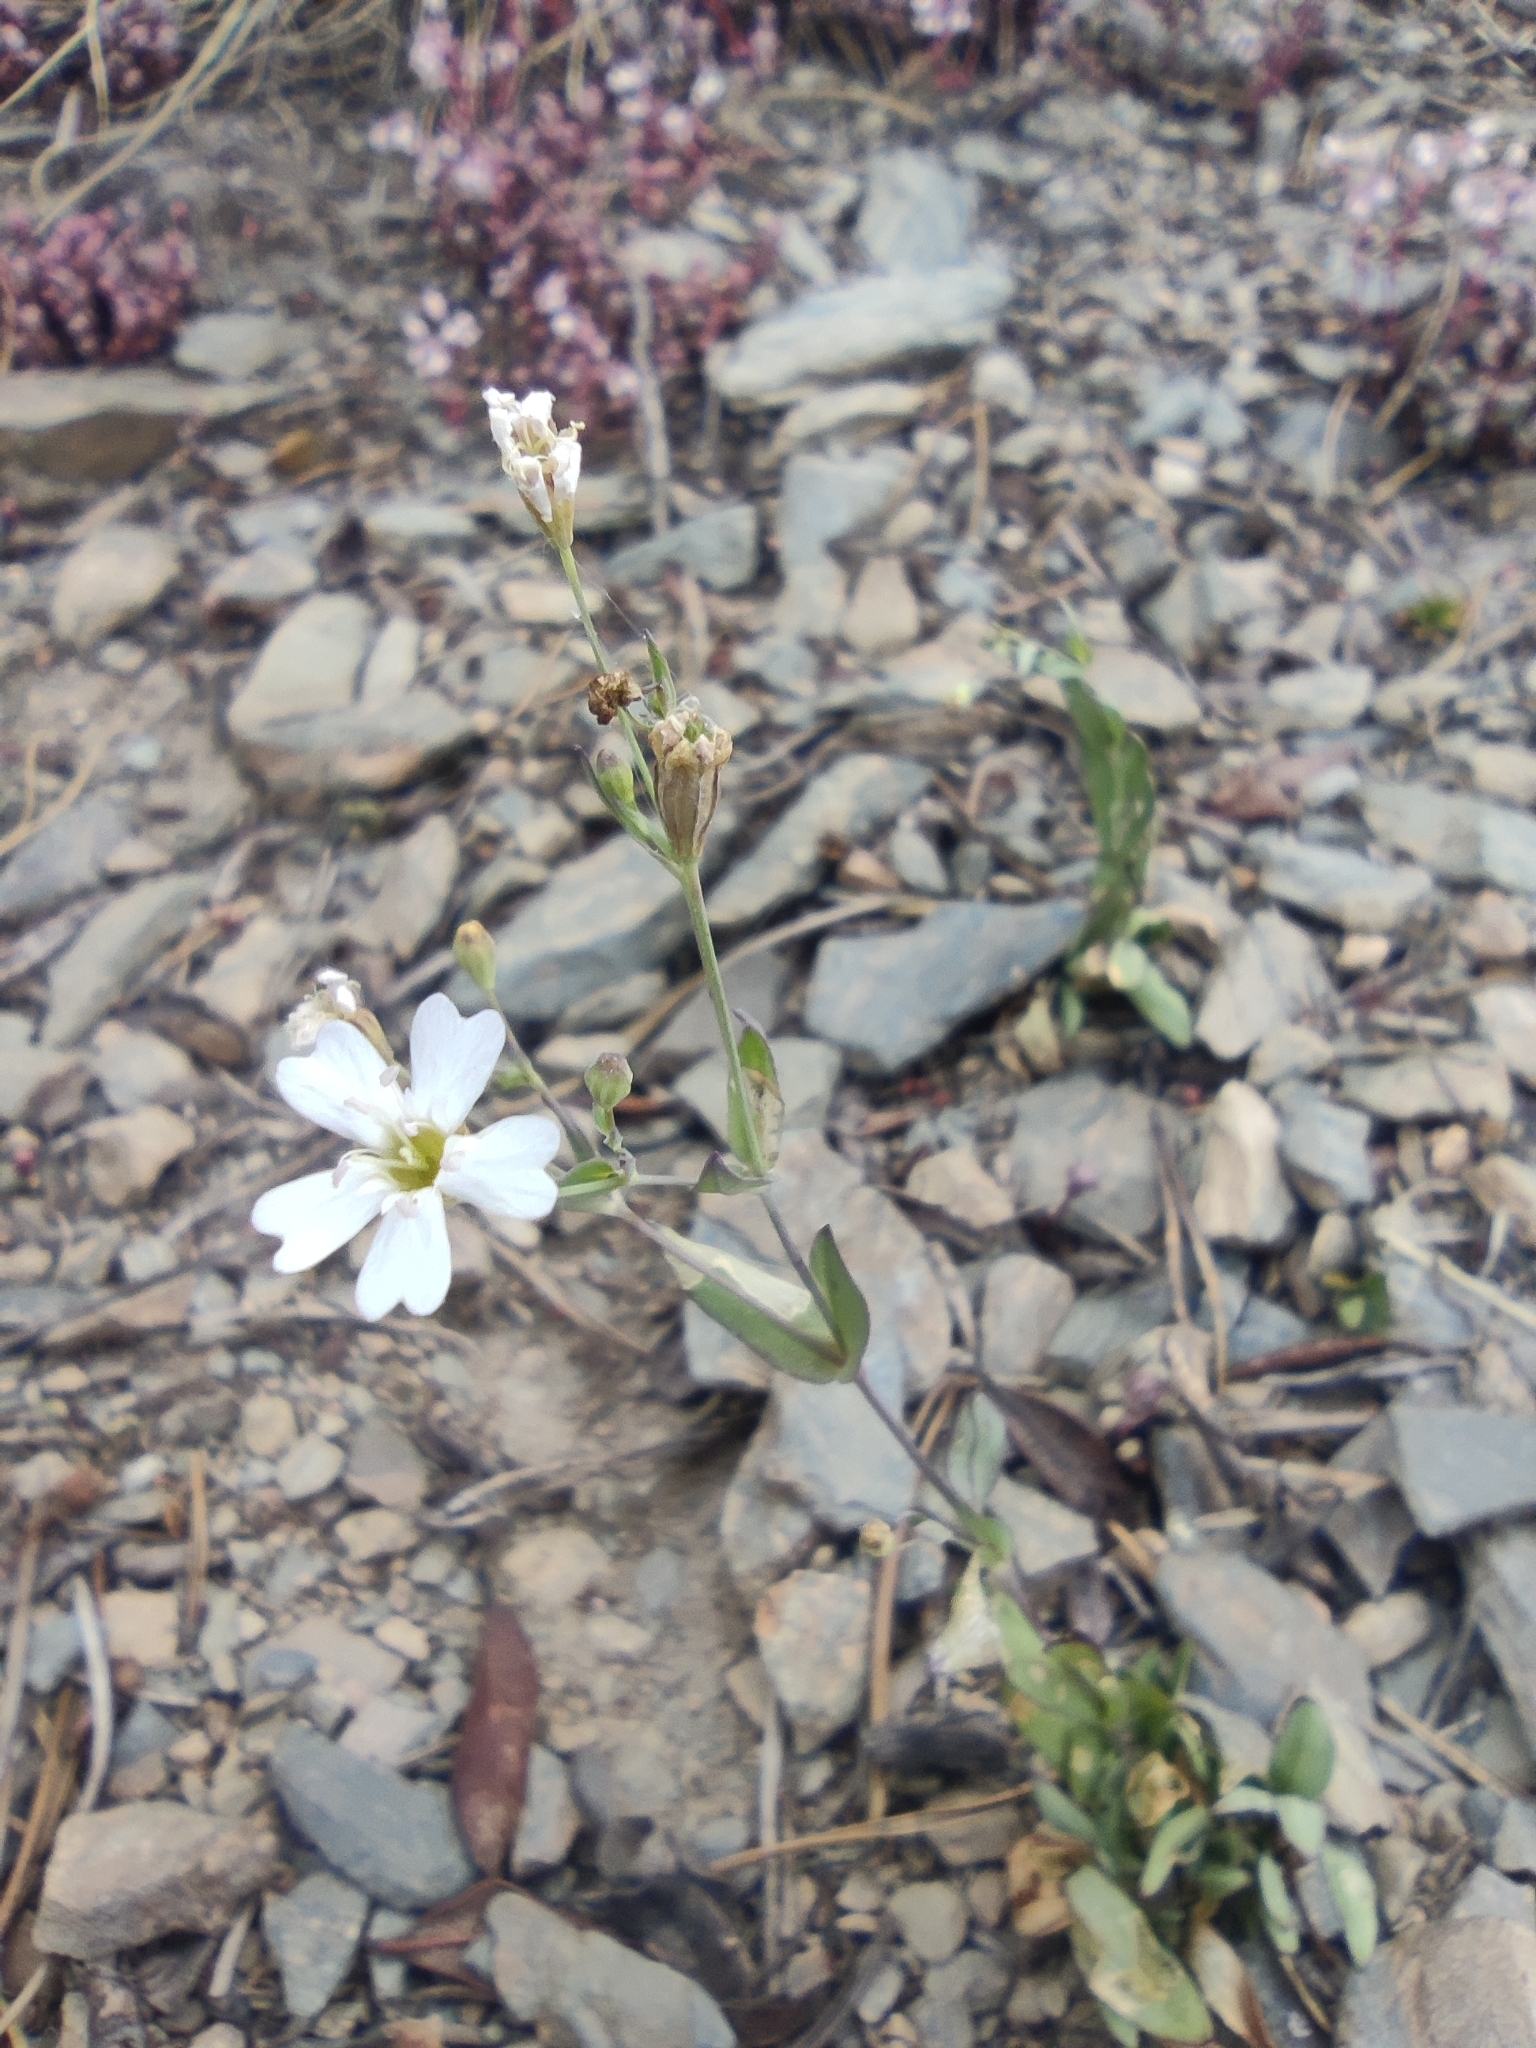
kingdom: Plantae
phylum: Tracheophyta
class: Magnoliopsida
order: Caryophyllales
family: Caryophyllaceae
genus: Atocion
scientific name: Atocion rupestre
